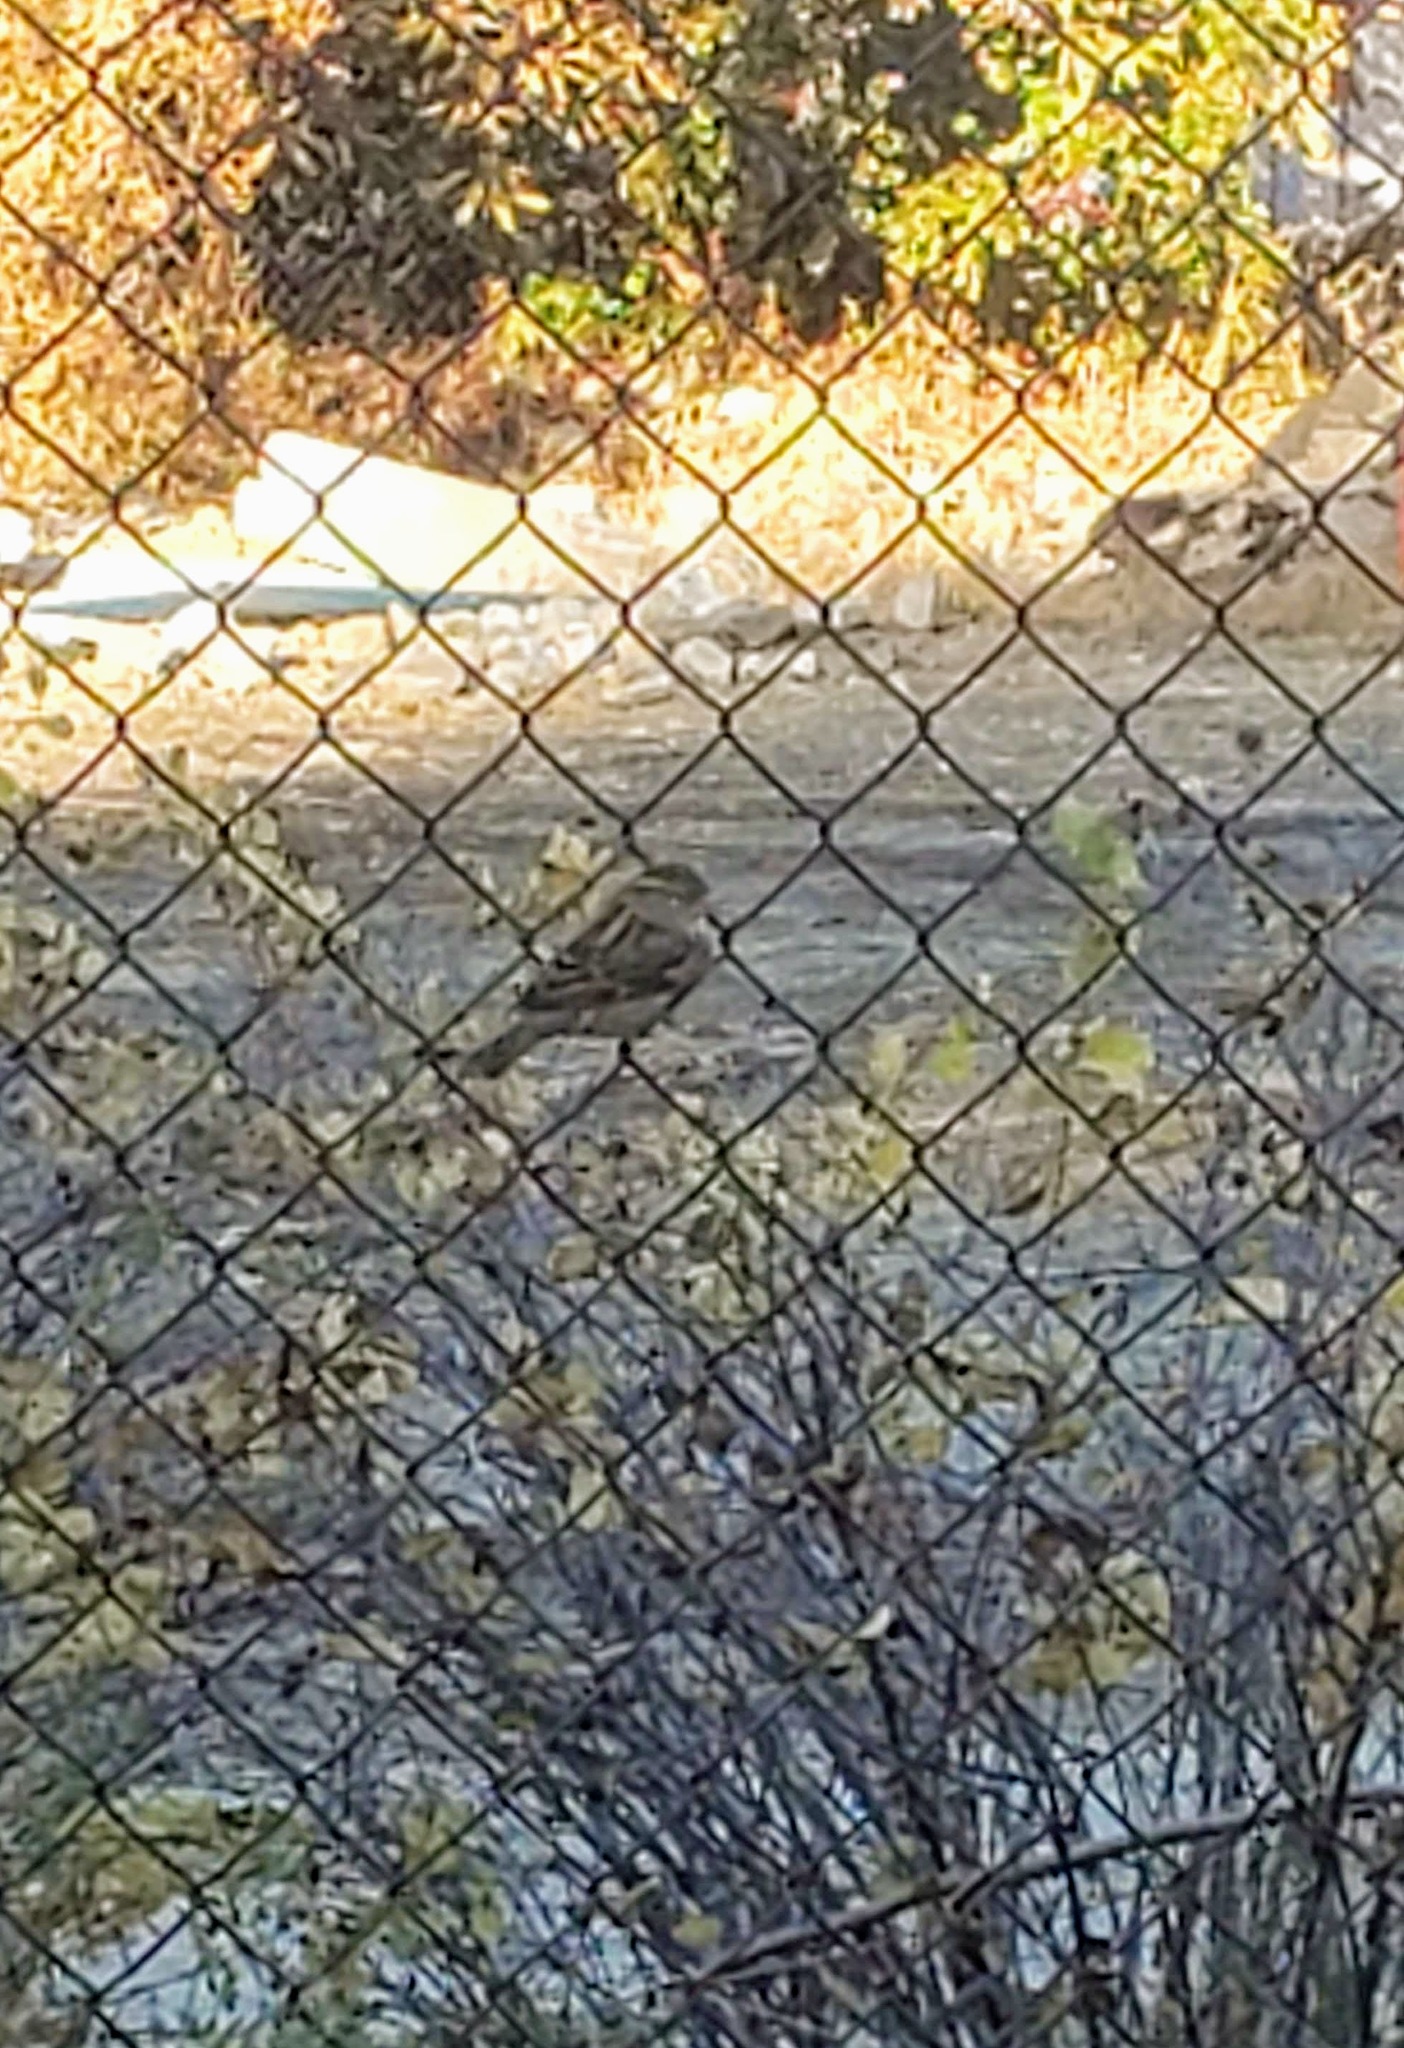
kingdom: Animalia
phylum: Chordata
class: Aves
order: Passeriformes
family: Passeridae
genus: Passer
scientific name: Passer domesticus
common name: House sparrow
